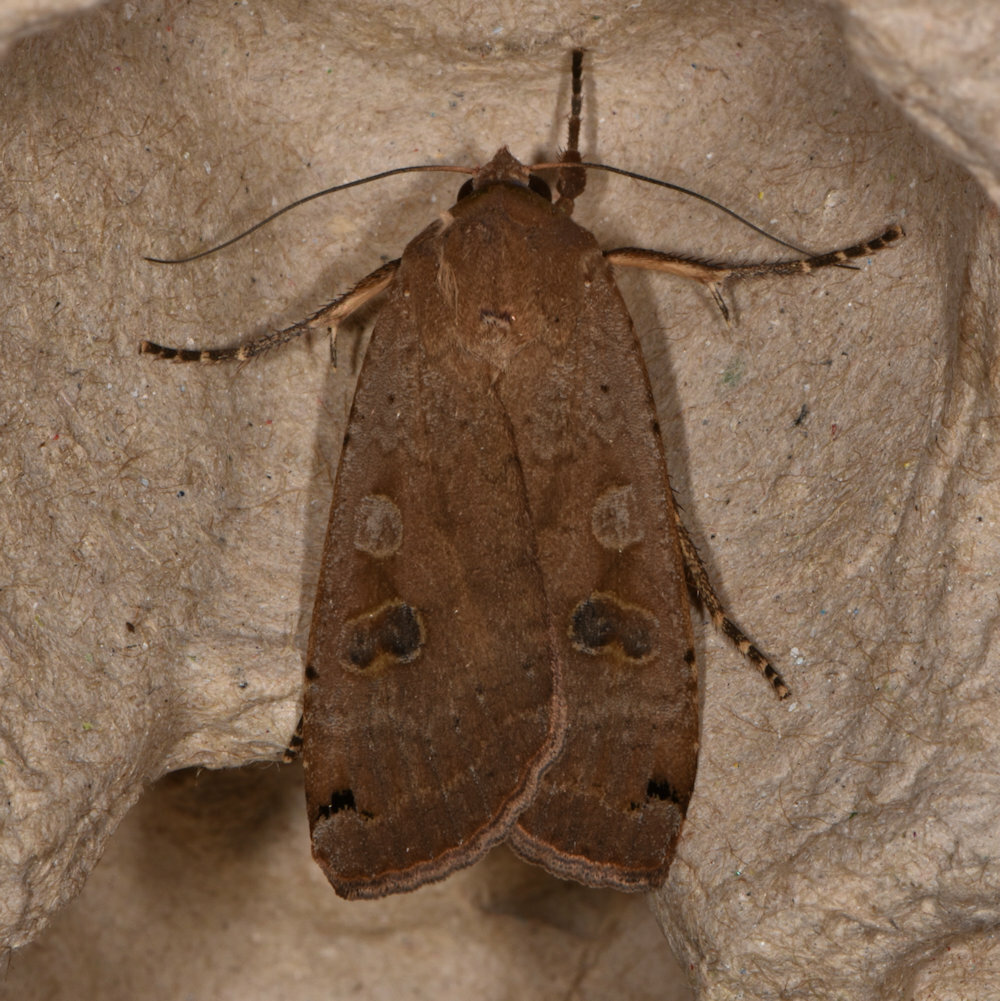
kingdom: Animalia
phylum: Arthropoda
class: Insecta
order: Lepidoptera
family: Noctuidae
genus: Noctua
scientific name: Noctua pronuba
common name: Large yellow underwing
